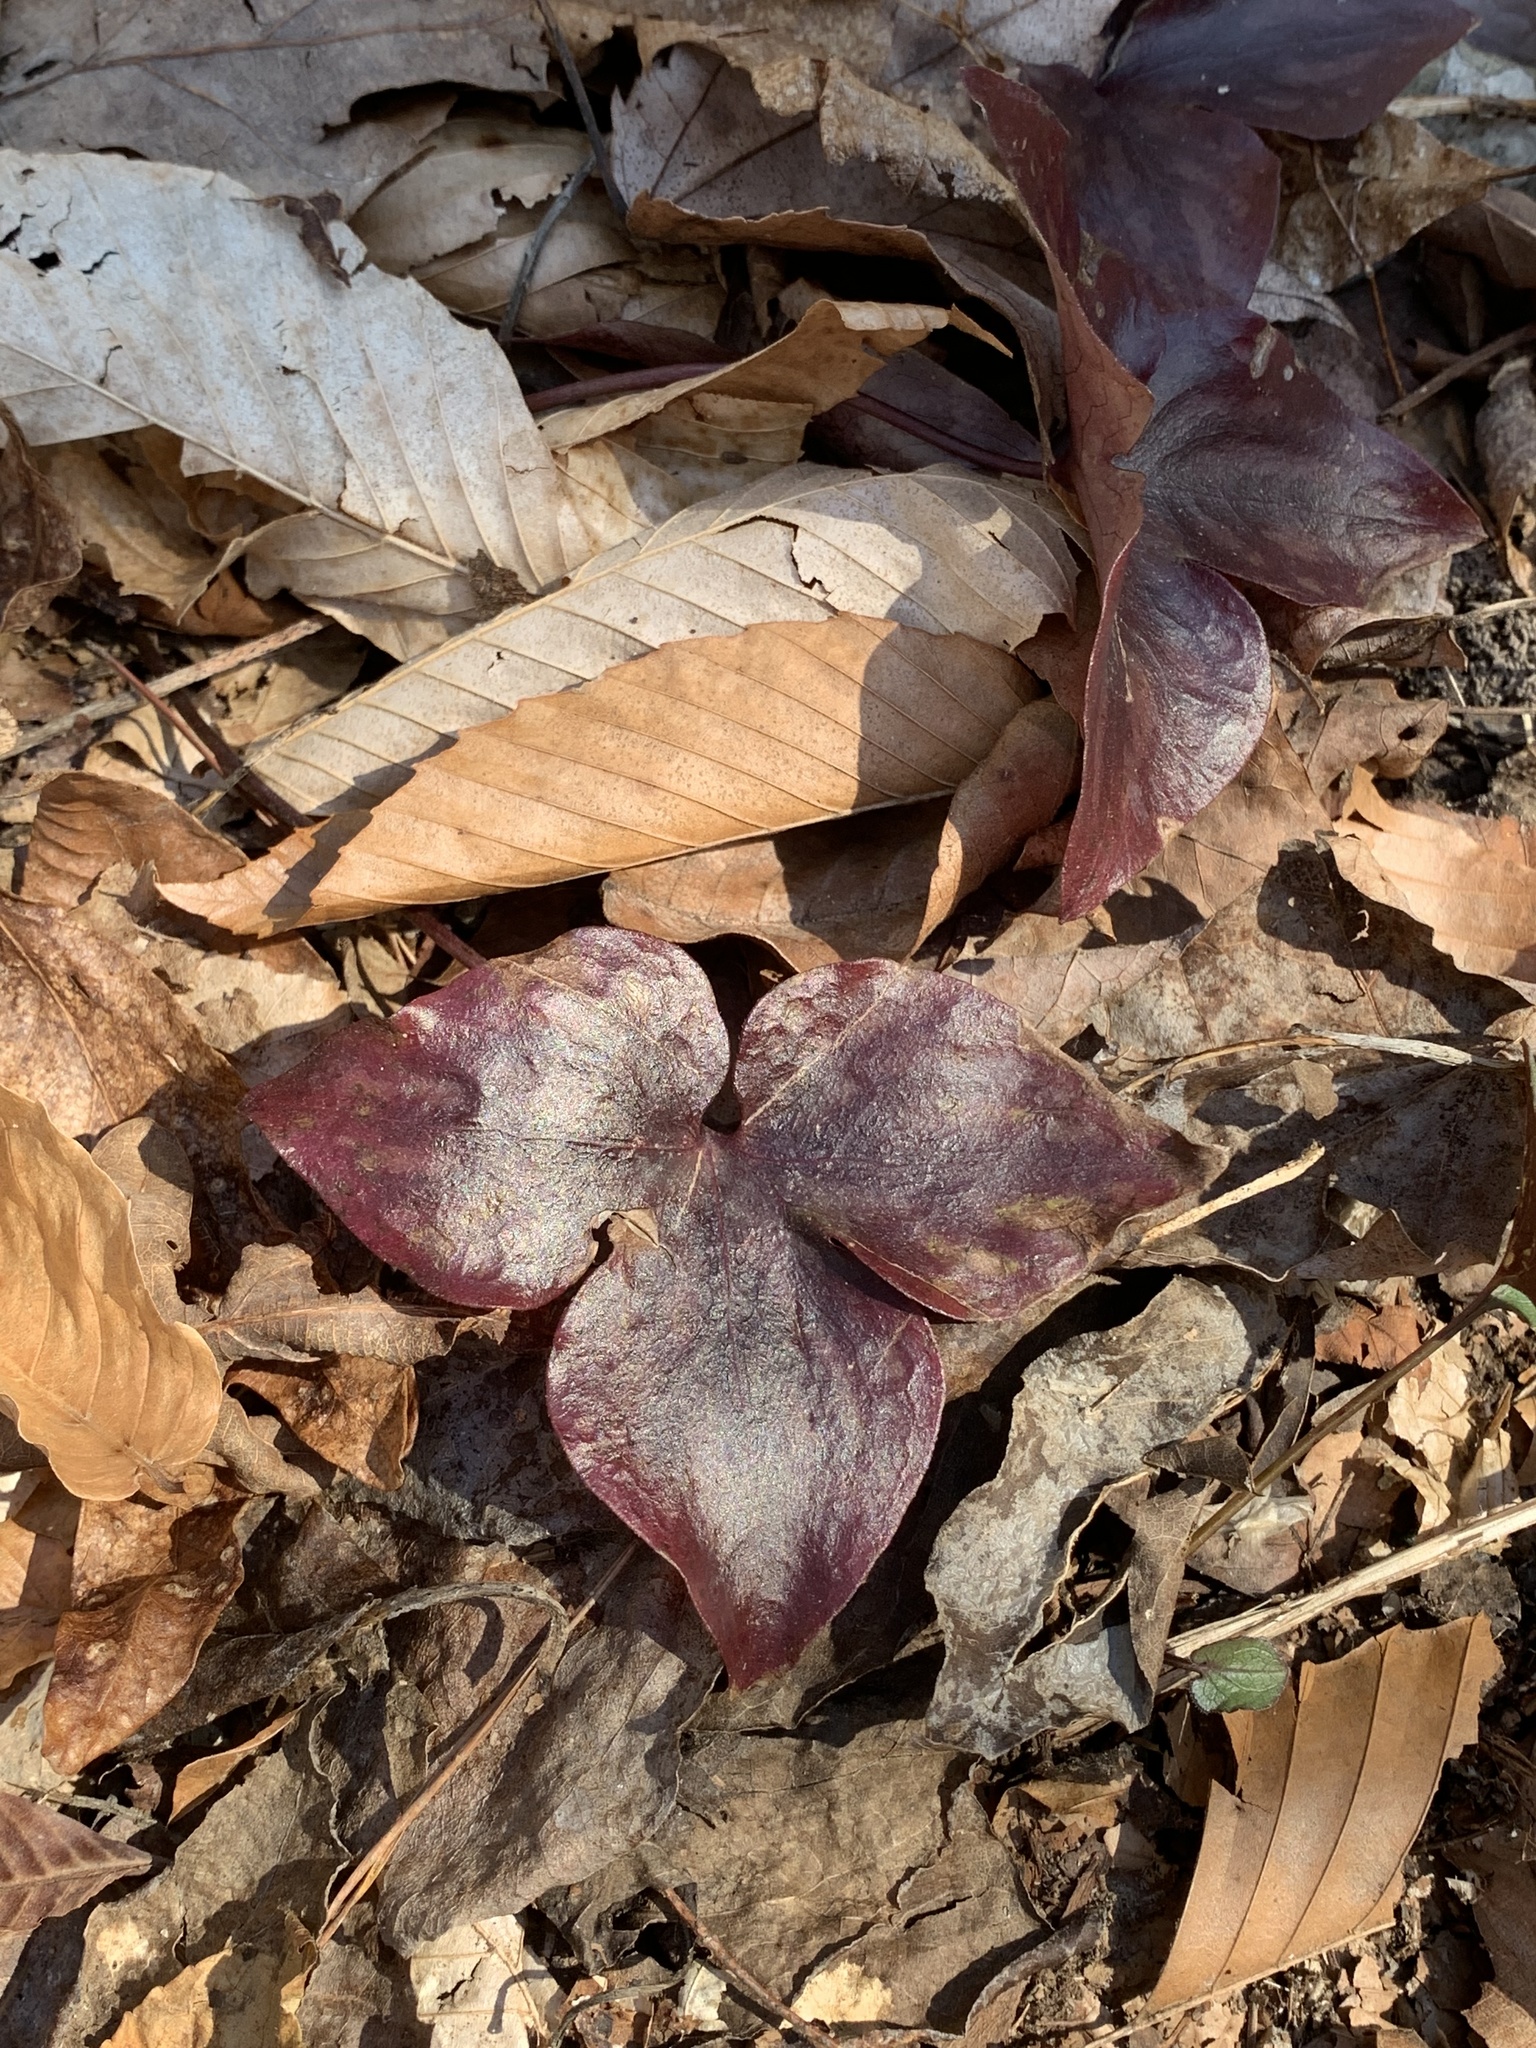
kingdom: Plantae
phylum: Tracheophyta
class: Magnoliopsida
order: Ranunculales
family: Ranunculaceae
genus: Hepatica
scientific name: Hepatica acutiloba
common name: Sharp-lobed hepatica
